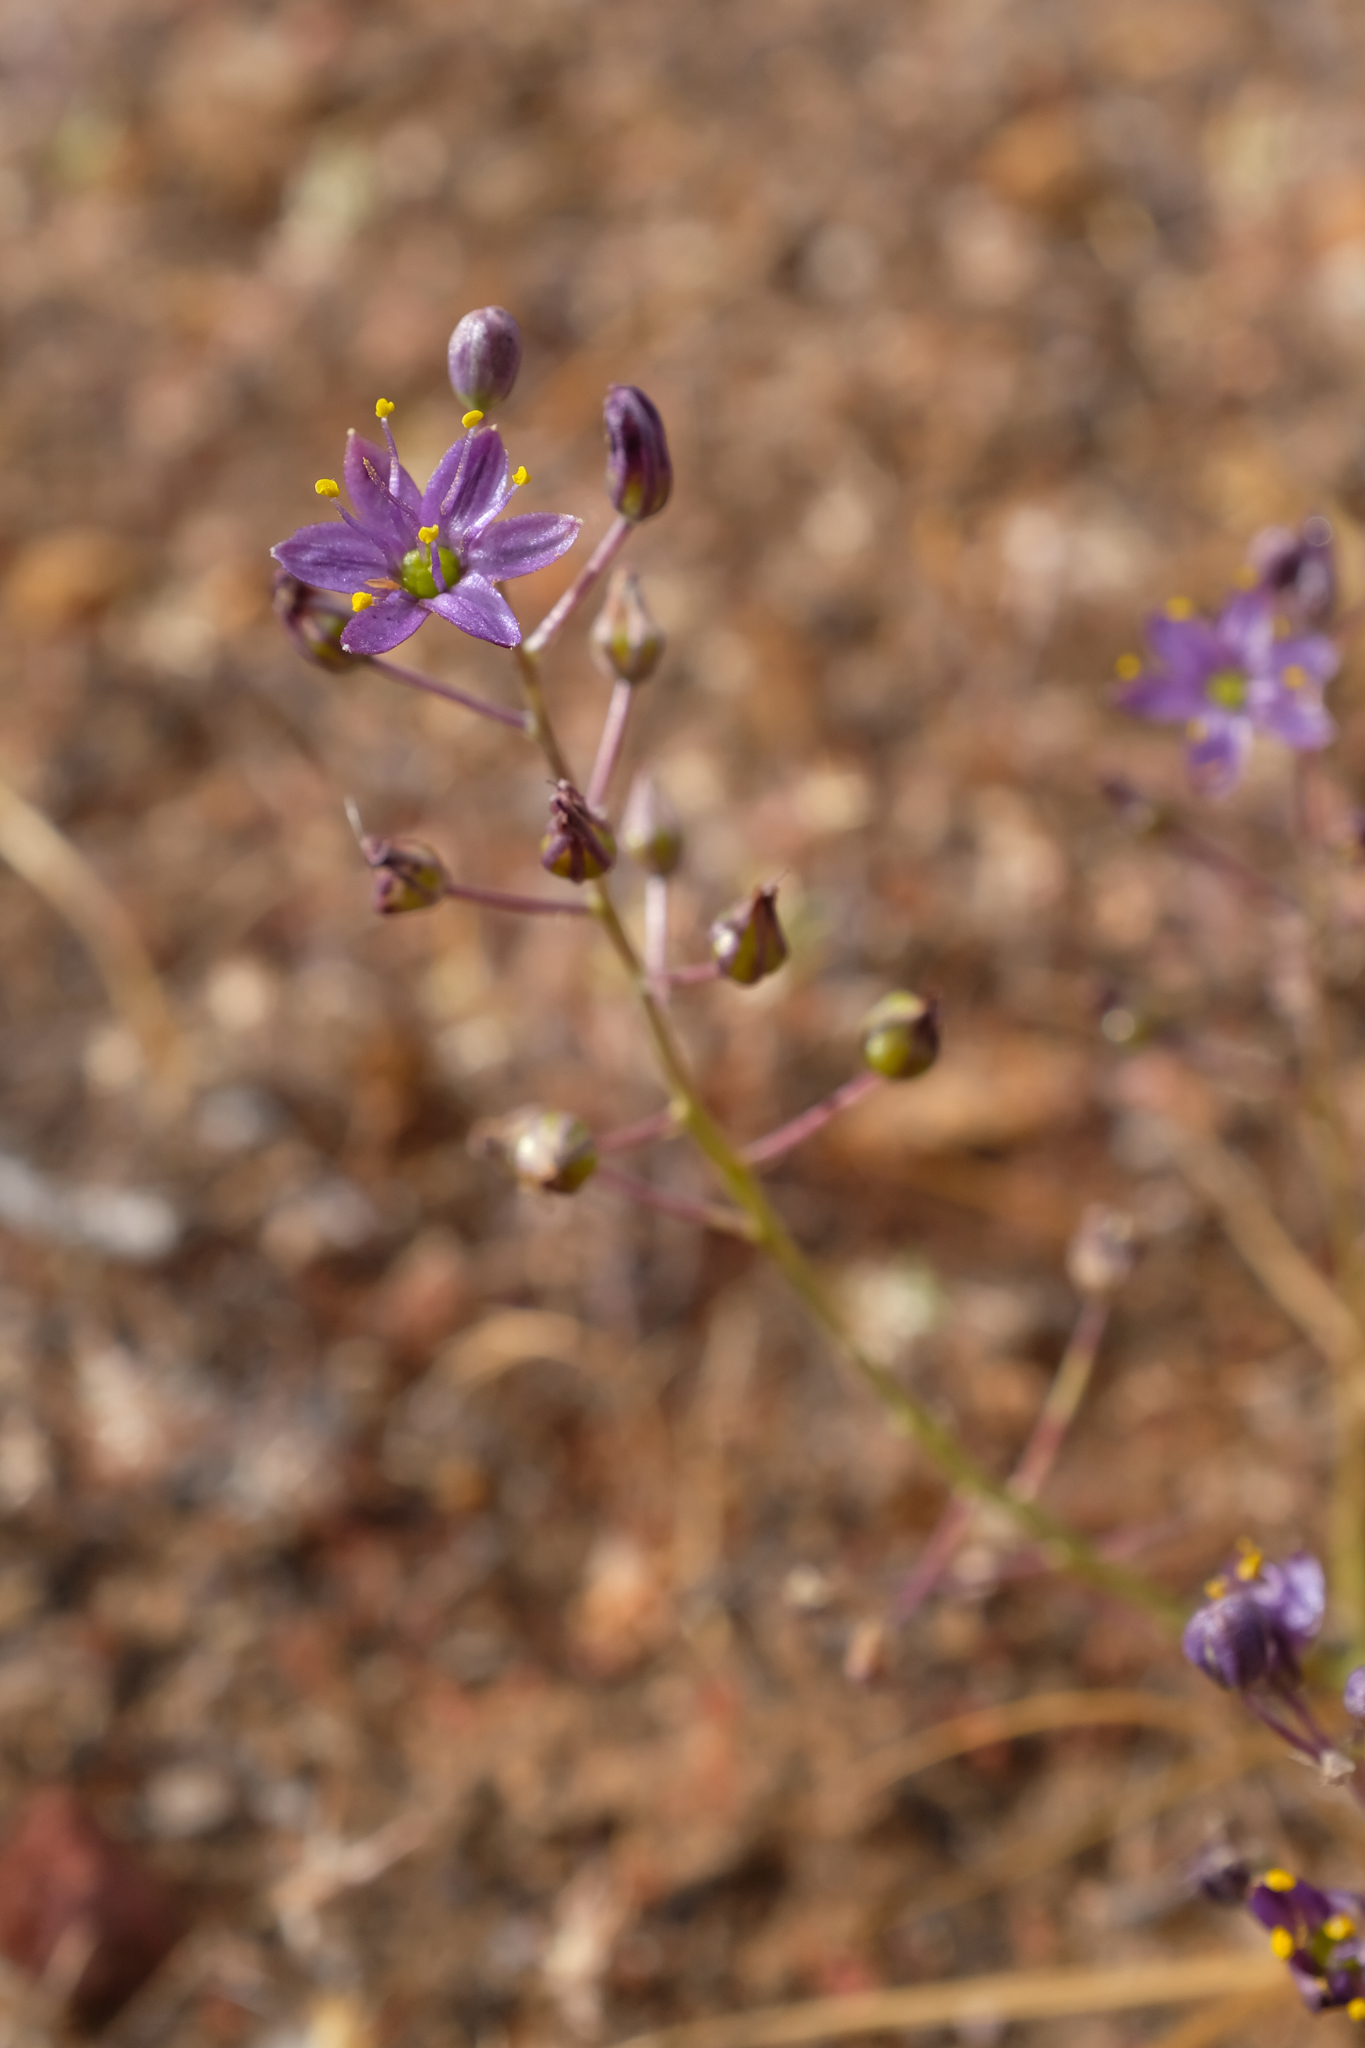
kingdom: Plantae
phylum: Tracheophyta
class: Liliopsida
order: Asparagales
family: Asparagaceae
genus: Hooveria
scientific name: Hooveria purpurea
